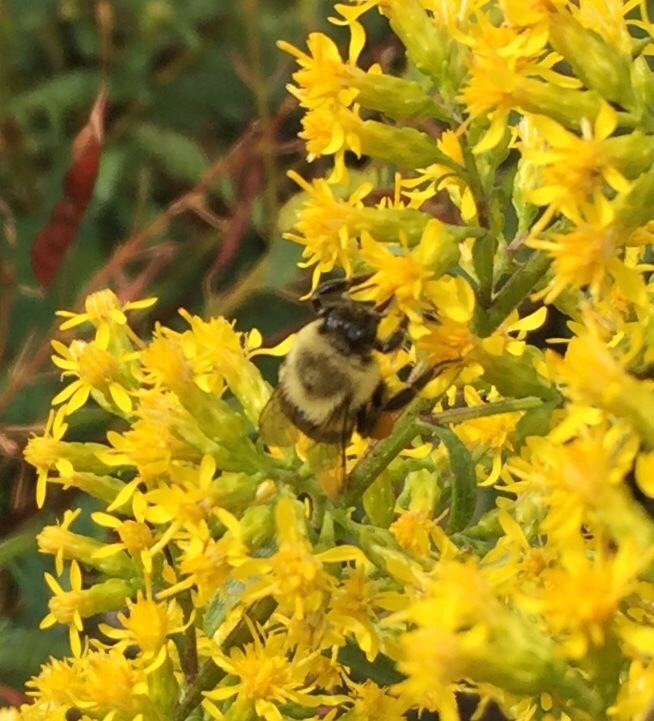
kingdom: Animalia
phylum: Arthropoda
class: Insecta
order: Hymenoptera
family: Apidae
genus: Bombus
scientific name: Bombus impatiens
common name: Common eastern bumble bee
